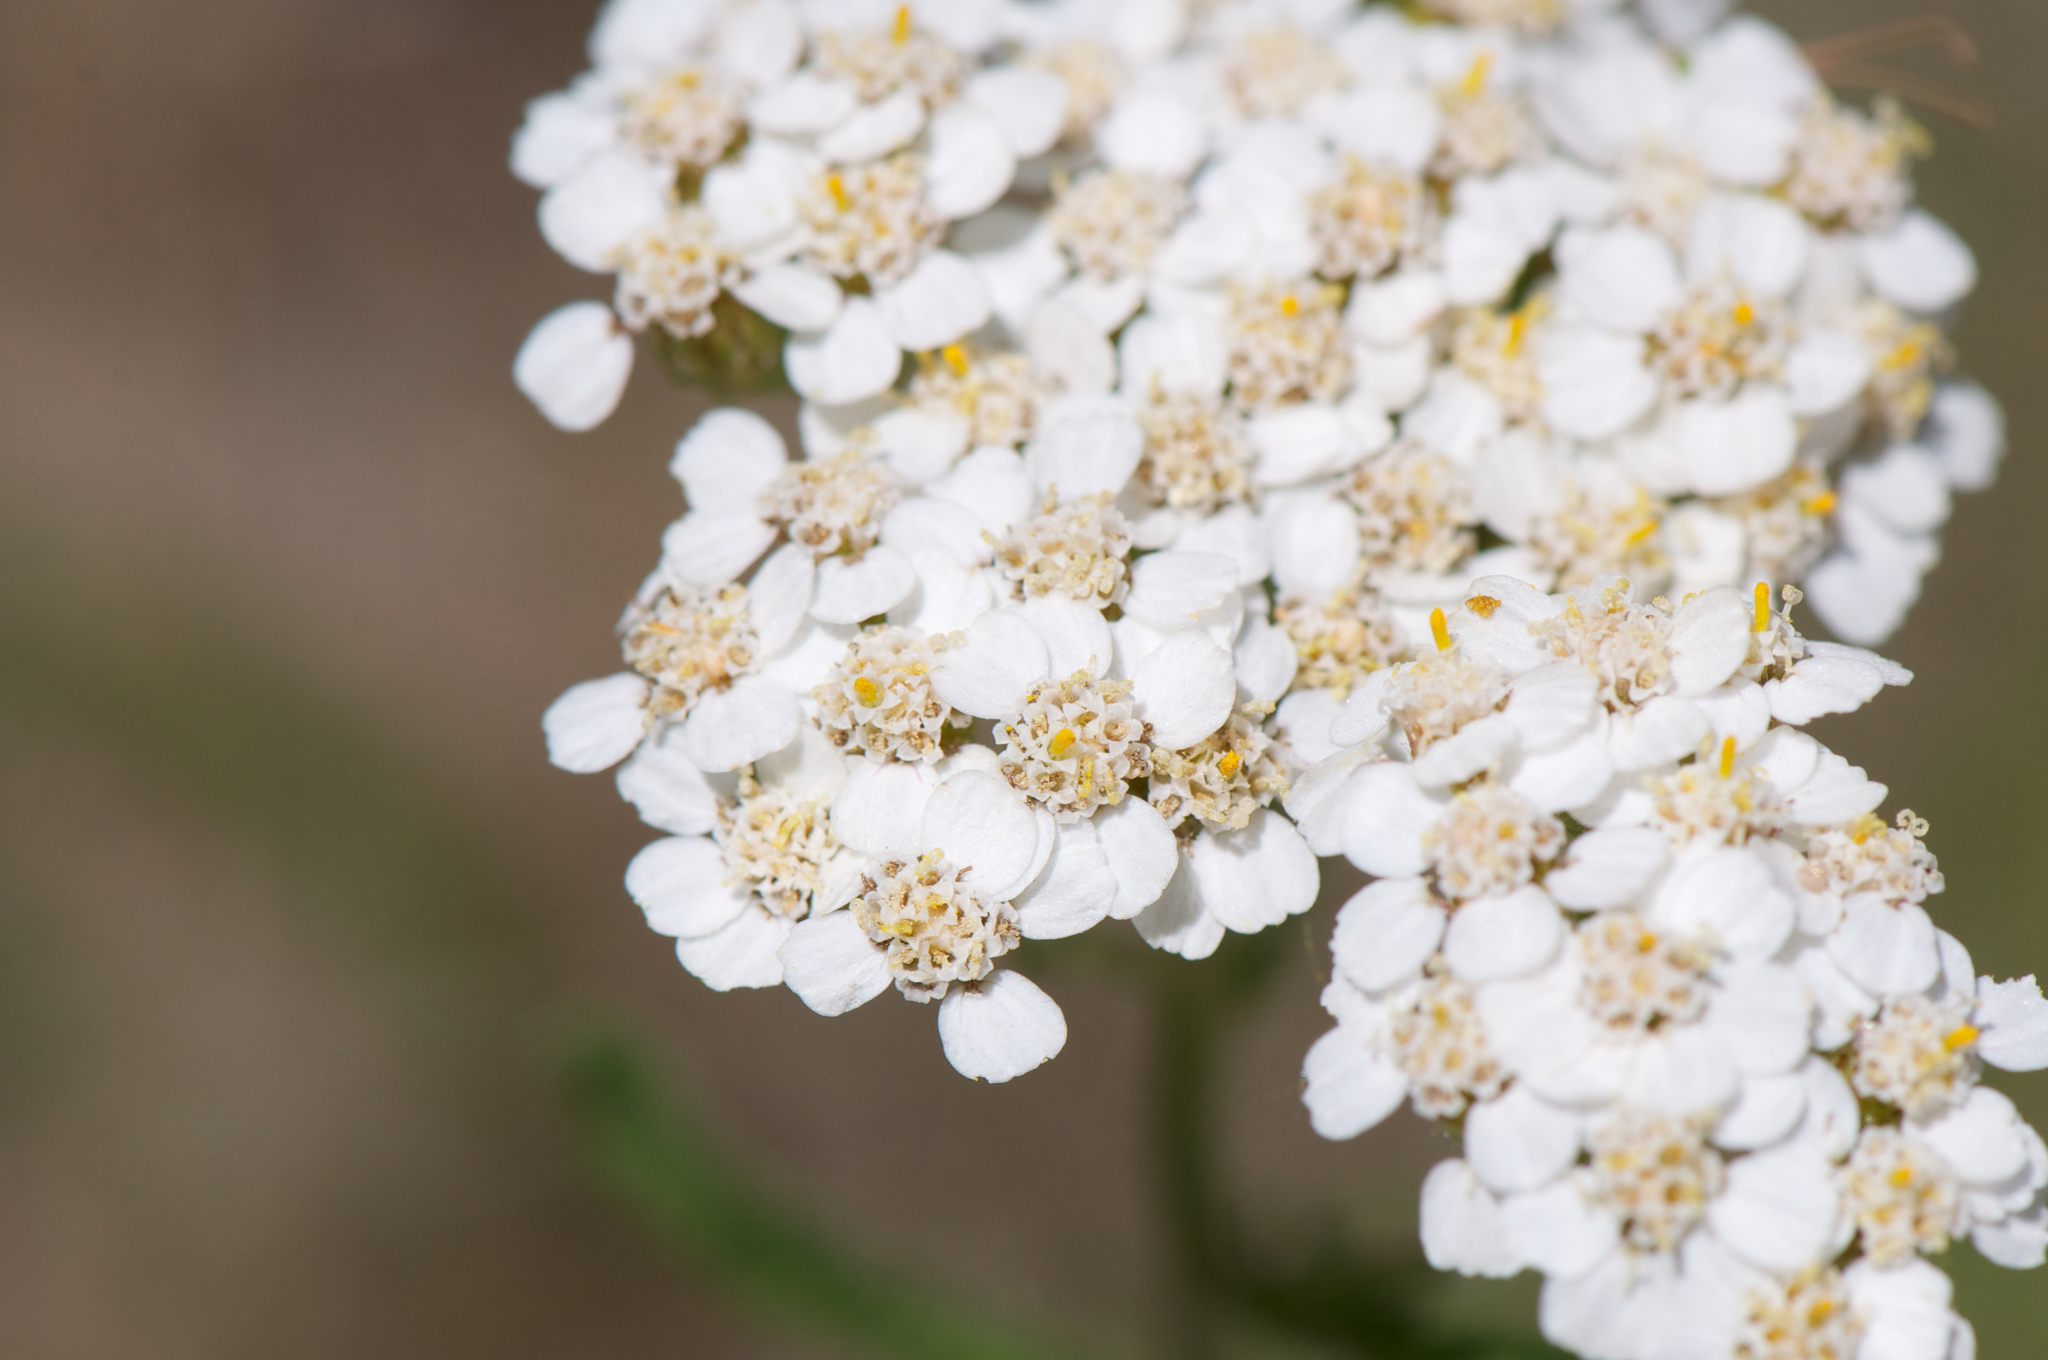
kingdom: Plantae
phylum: Tracheophyta
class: Magnoliopsida
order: Asterales
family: Asteraceae
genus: Achillea
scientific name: Achillea millefolium
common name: Yarrow
